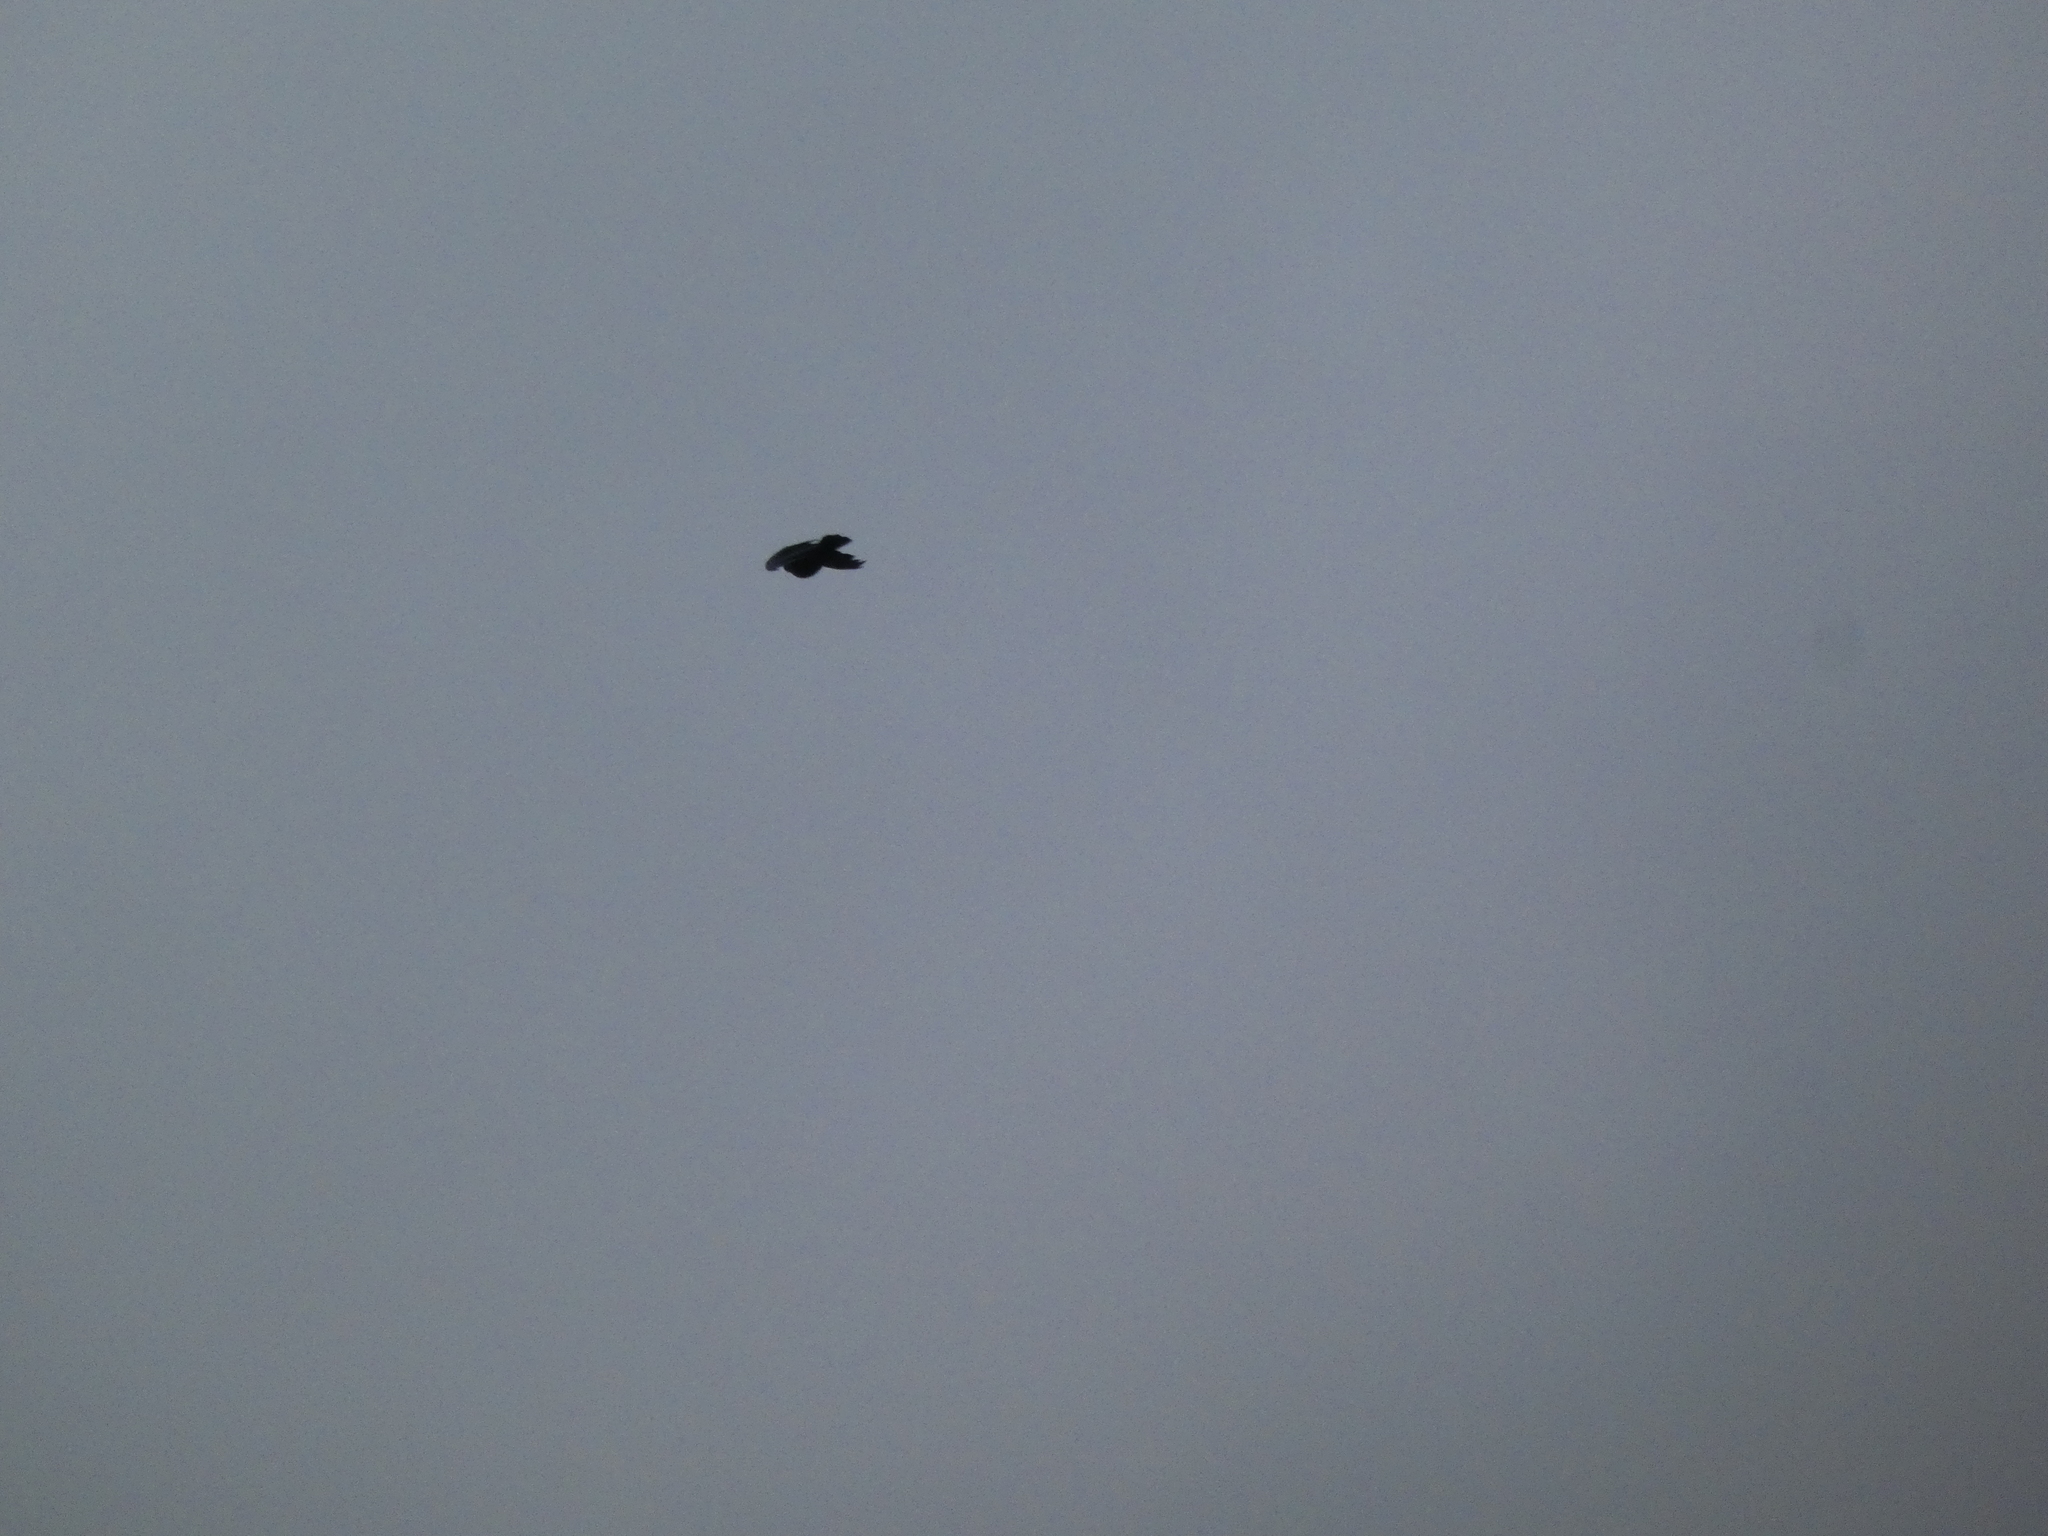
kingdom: Animalia
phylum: Chordata
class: Aves
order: Passeriformes
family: Corvidae
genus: Corvus
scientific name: Corvus brachyrhynchos
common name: American crow
